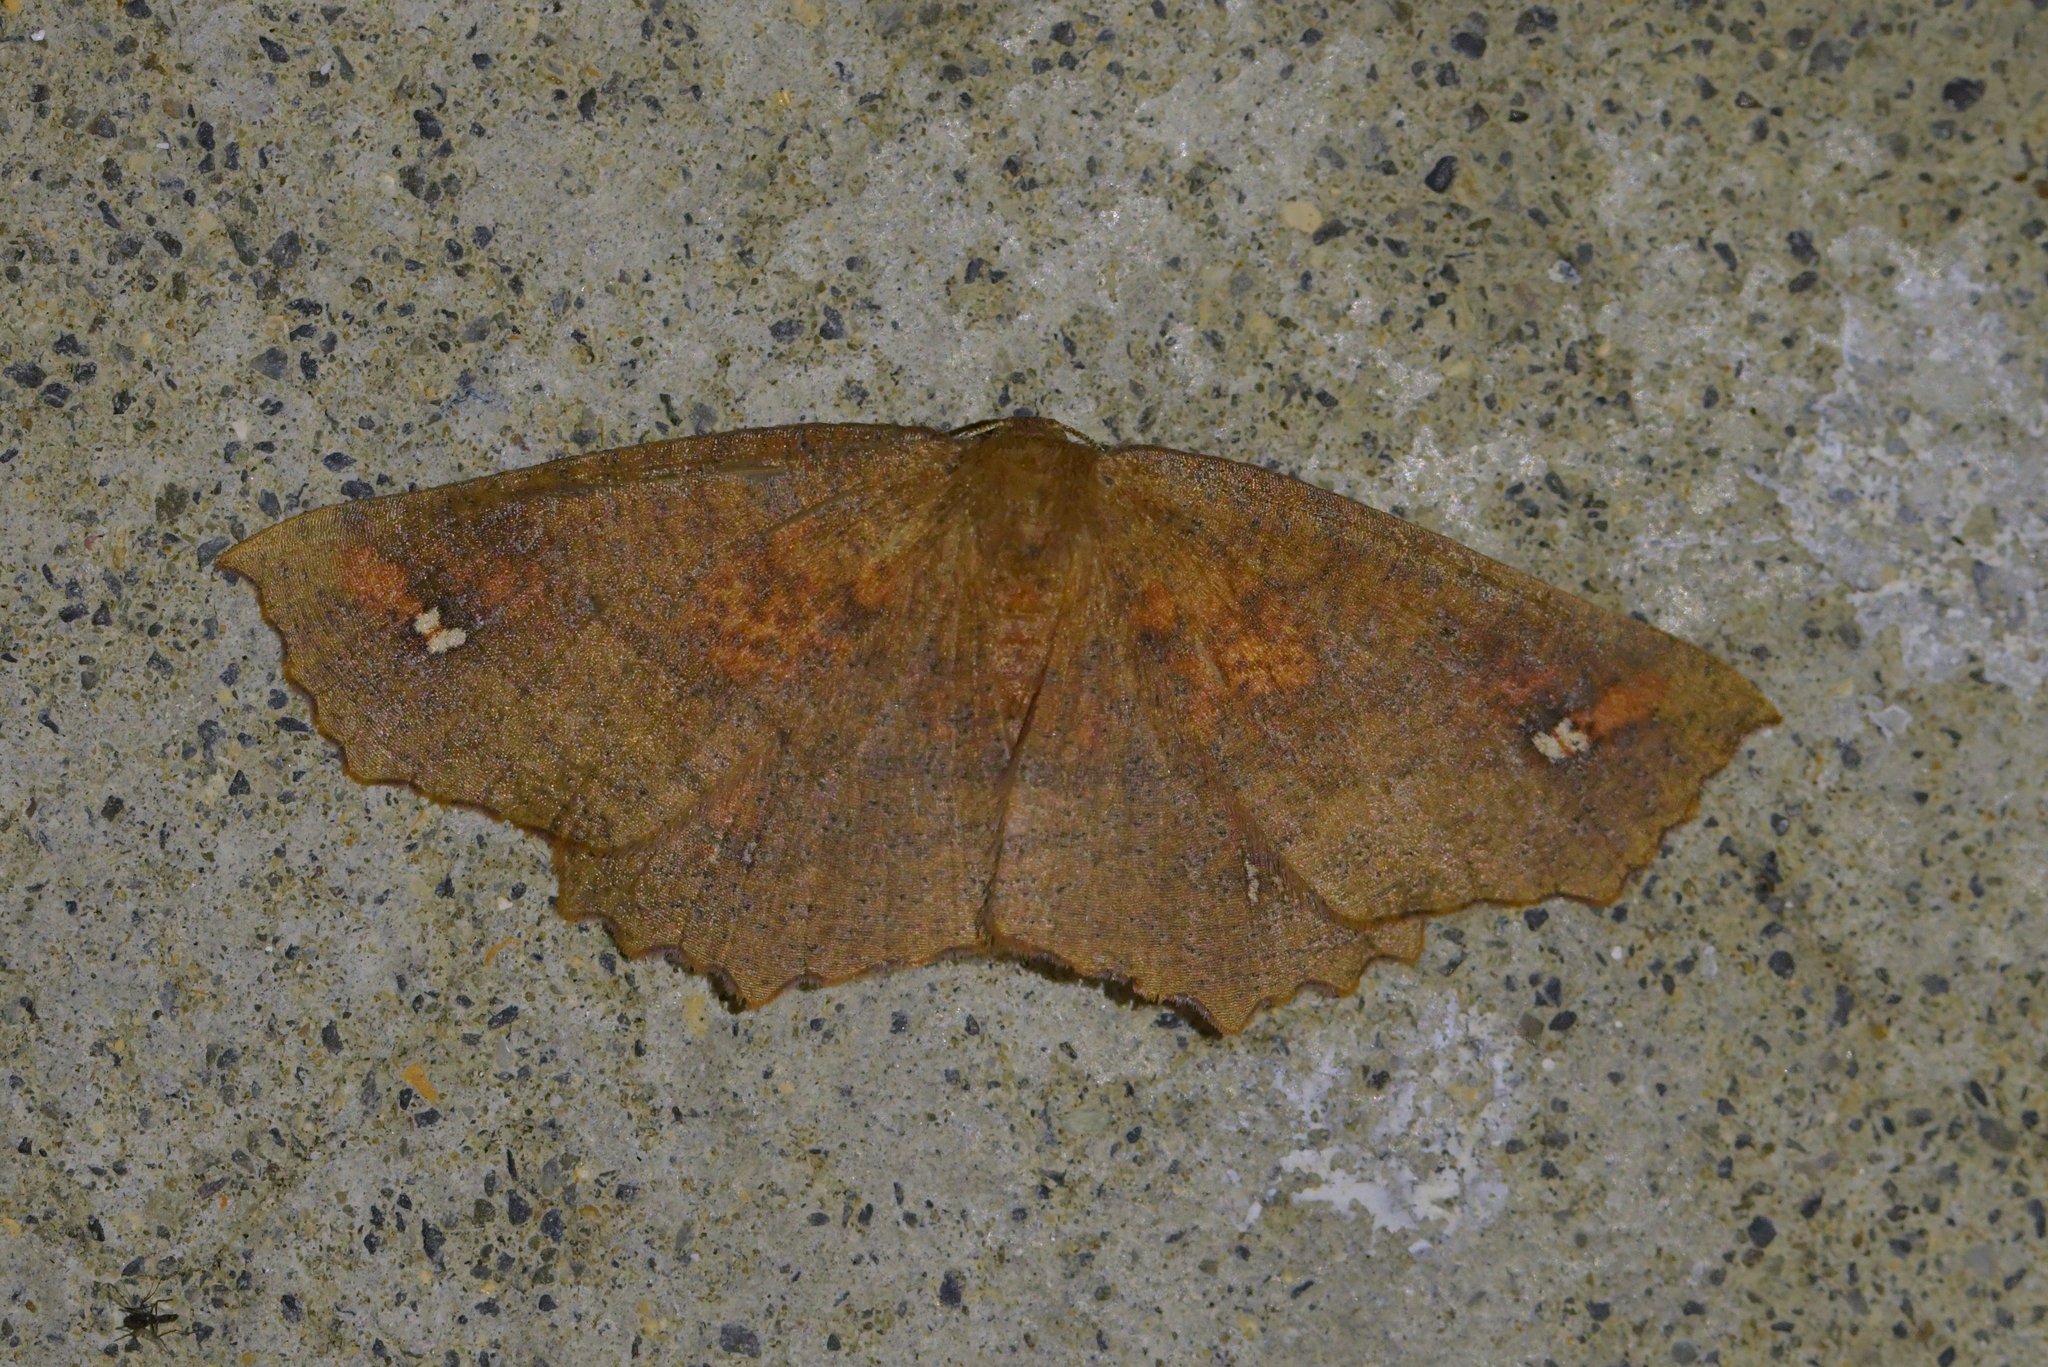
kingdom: Animalia
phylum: Arthropoda
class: Insecta
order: Lepidoptera
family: Geometridae
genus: Xyridacma
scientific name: Xyridacma ustaria
